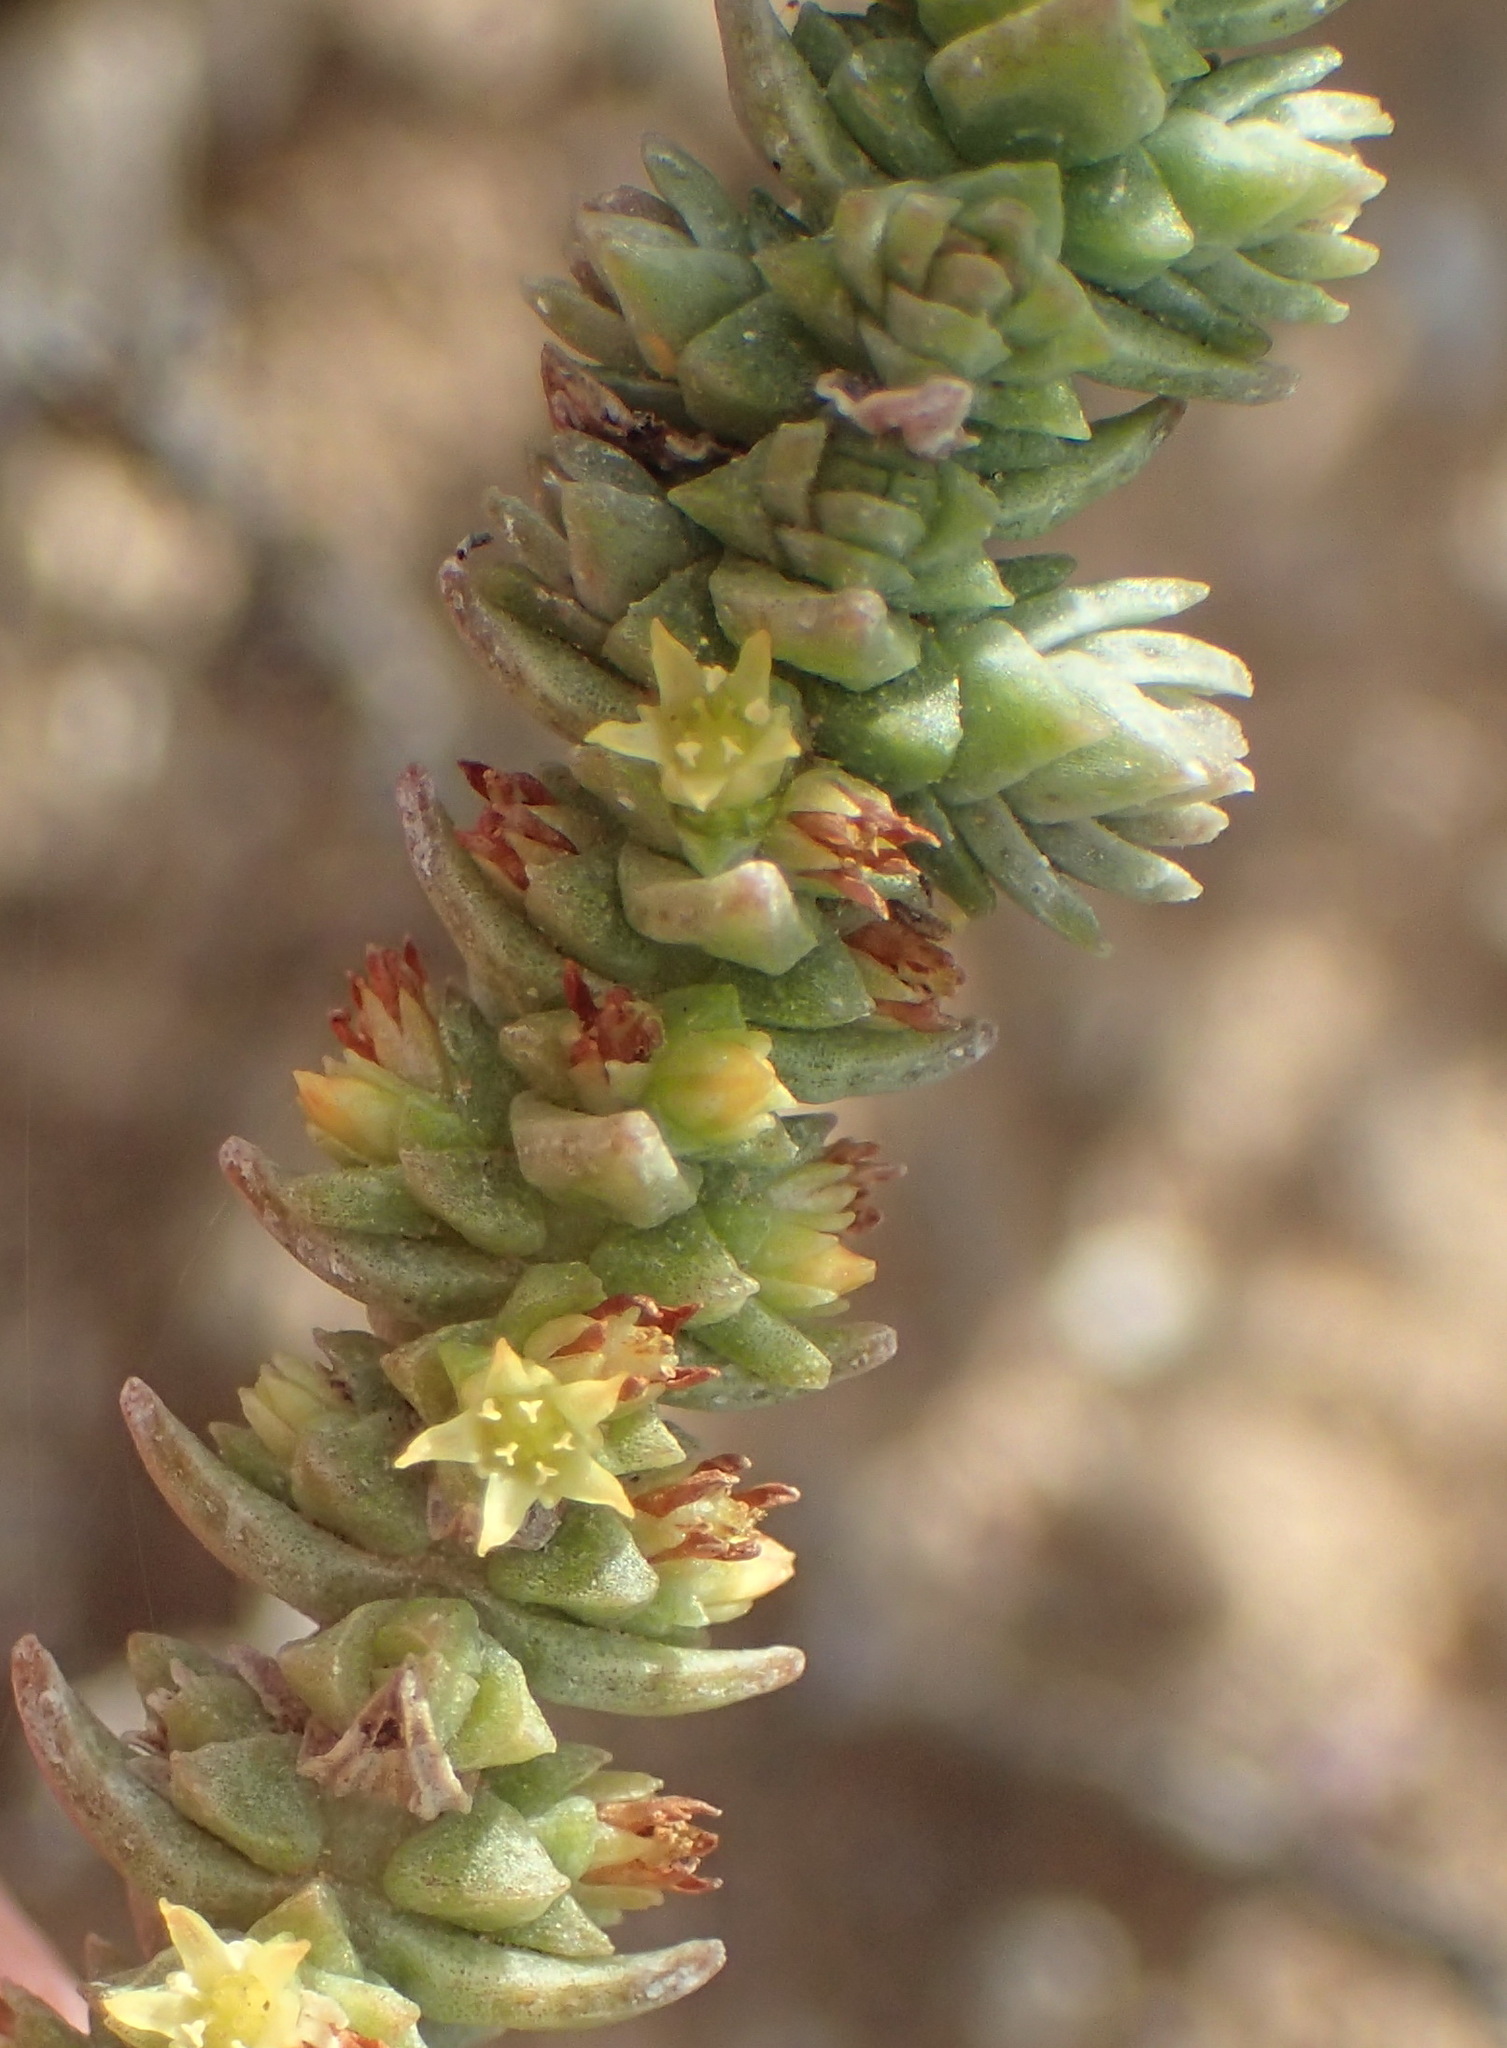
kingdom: Plantae
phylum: Tracheophyta
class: Magnoliopsida
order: Saxifragales
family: Crassulaceae
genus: Crassula
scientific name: Crassula muscosa
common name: Toy-cypress
